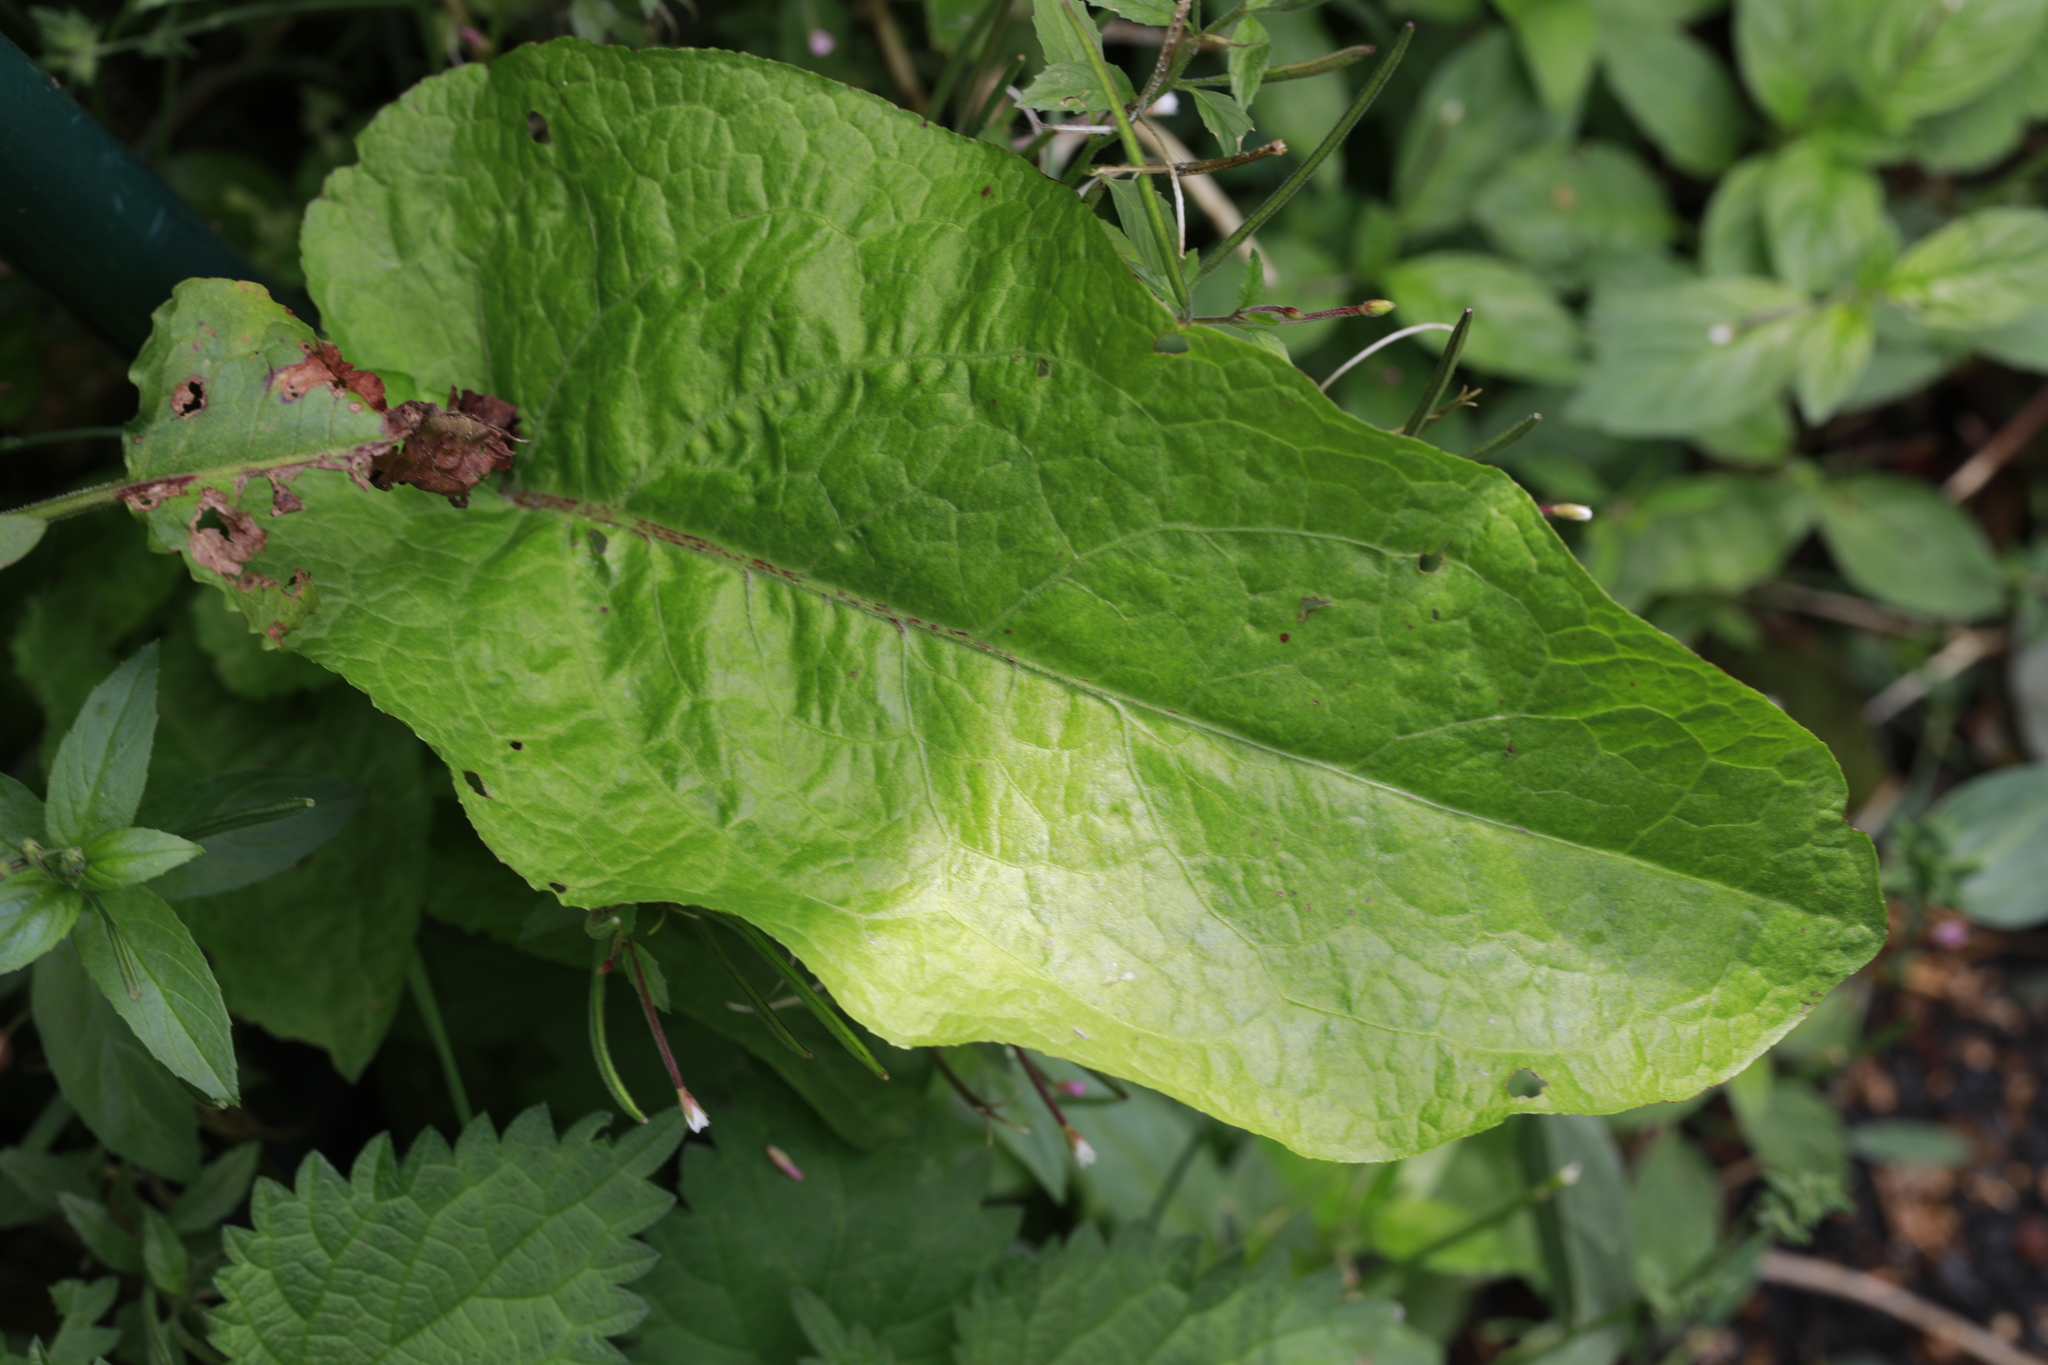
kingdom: Plantae
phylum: Tracheophyta
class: Magnoliopsida
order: Caryophyllales
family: Polygonaceae
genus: Rumex
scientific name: Rumex obtusifolius
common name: Bitter dock
